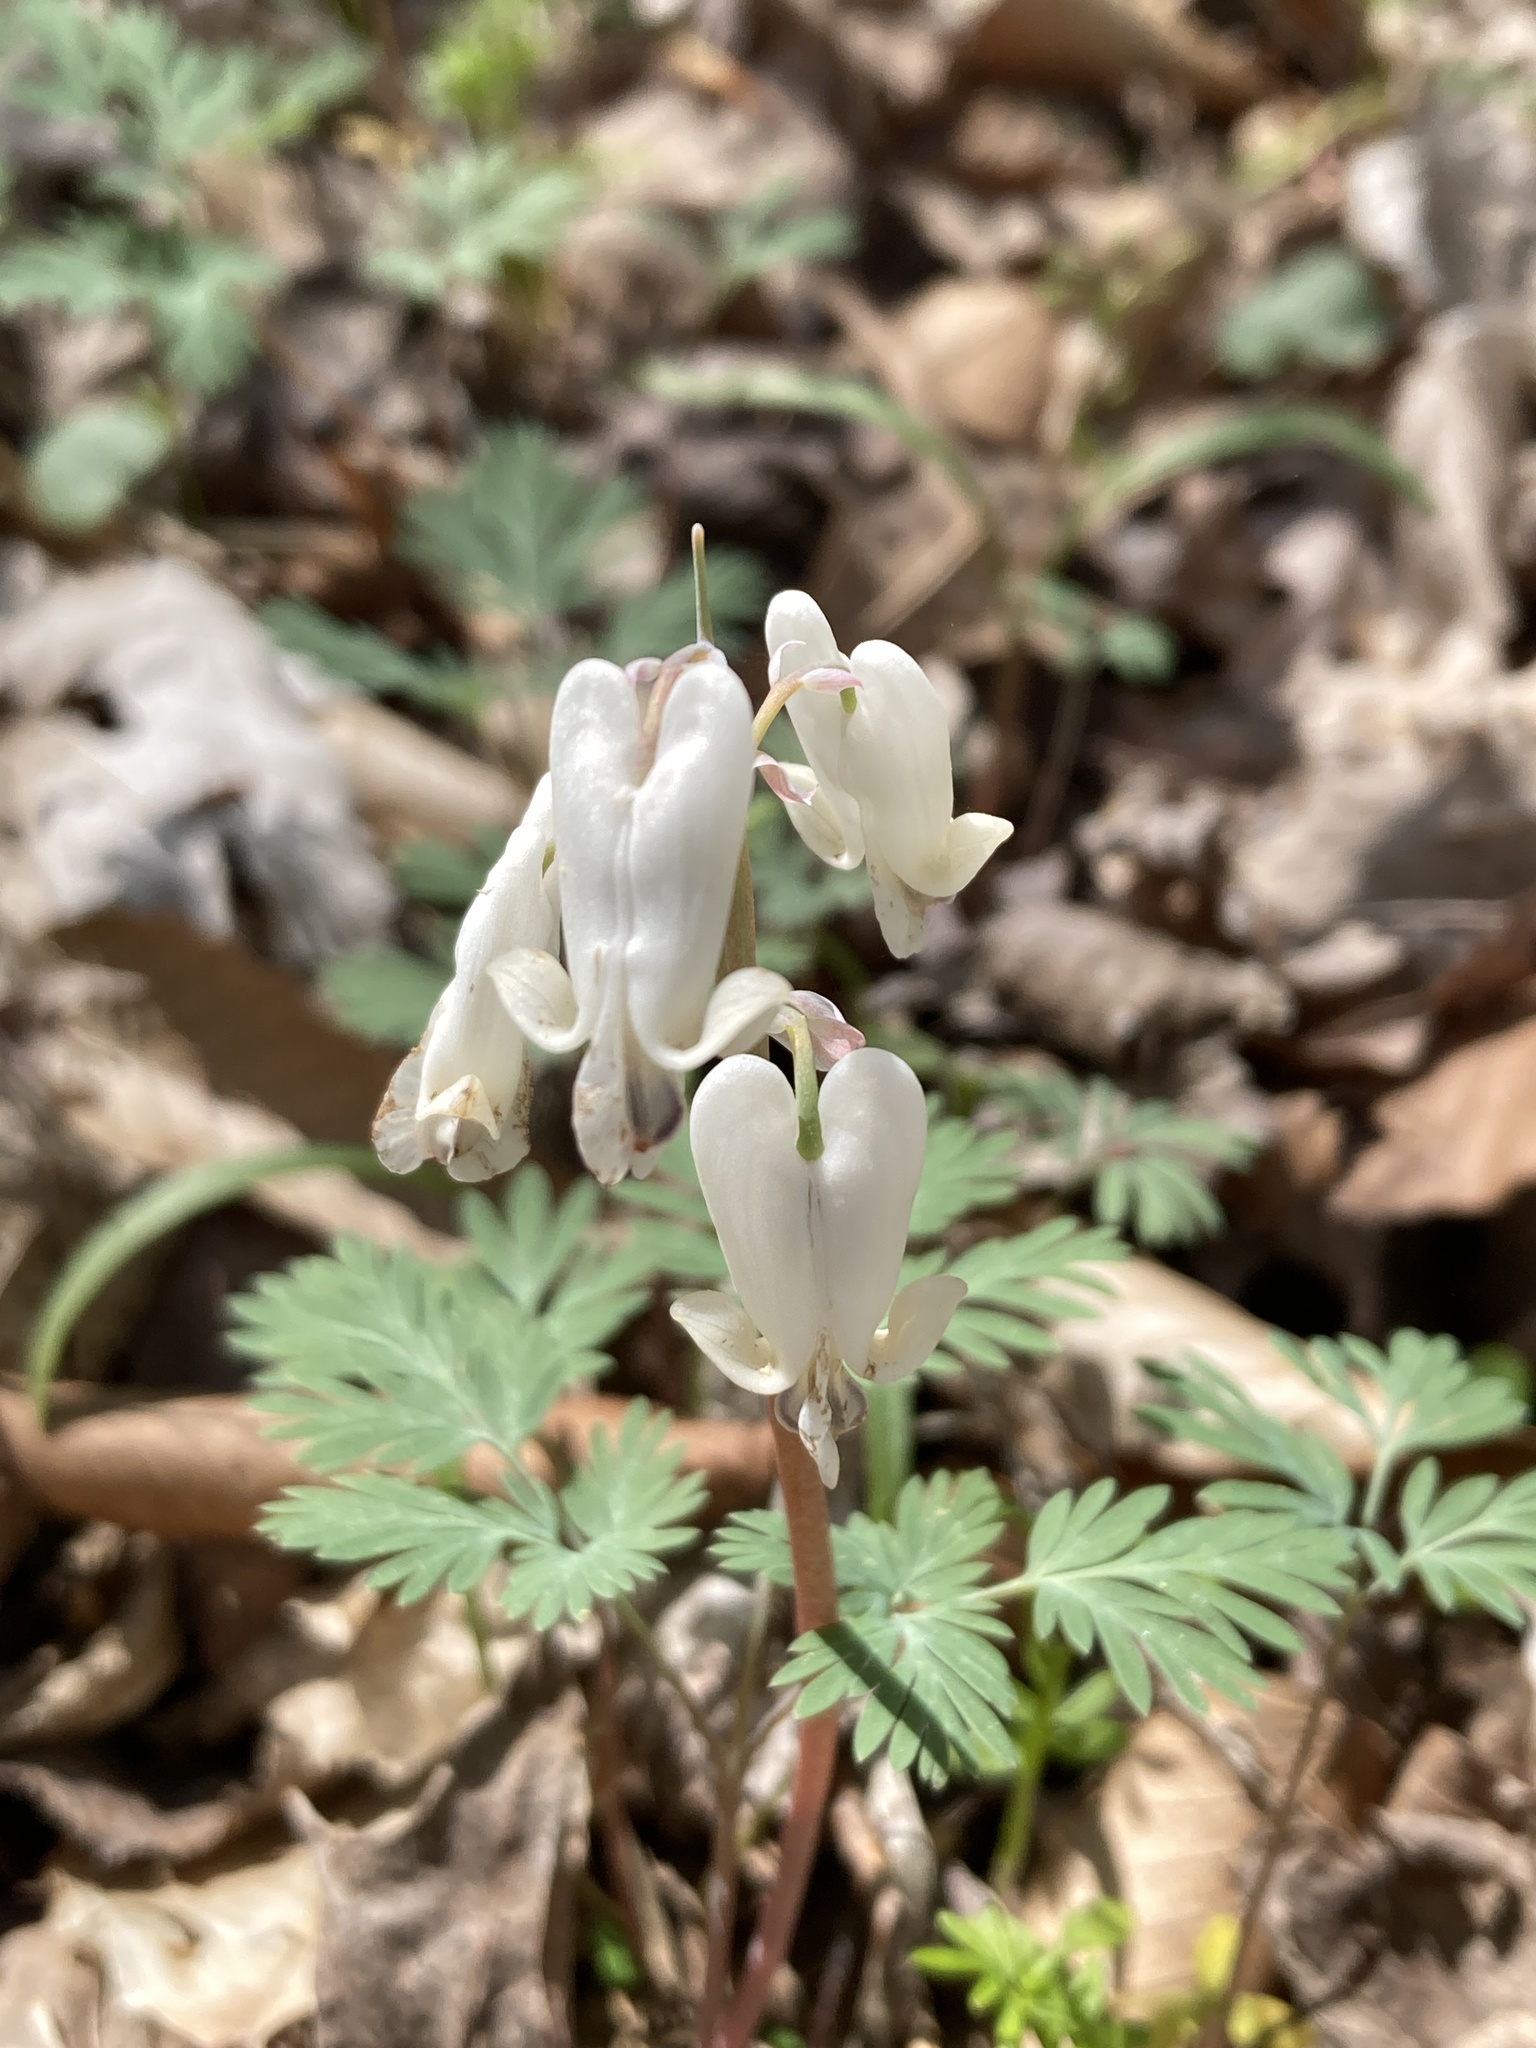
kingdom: Plantae
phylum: Tracheophyta
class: Magnoliopsida
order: Ranunculales
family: Papaveraceae
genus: Dicentra
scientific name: Dicentra canadensis
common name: Squirrel-corn
